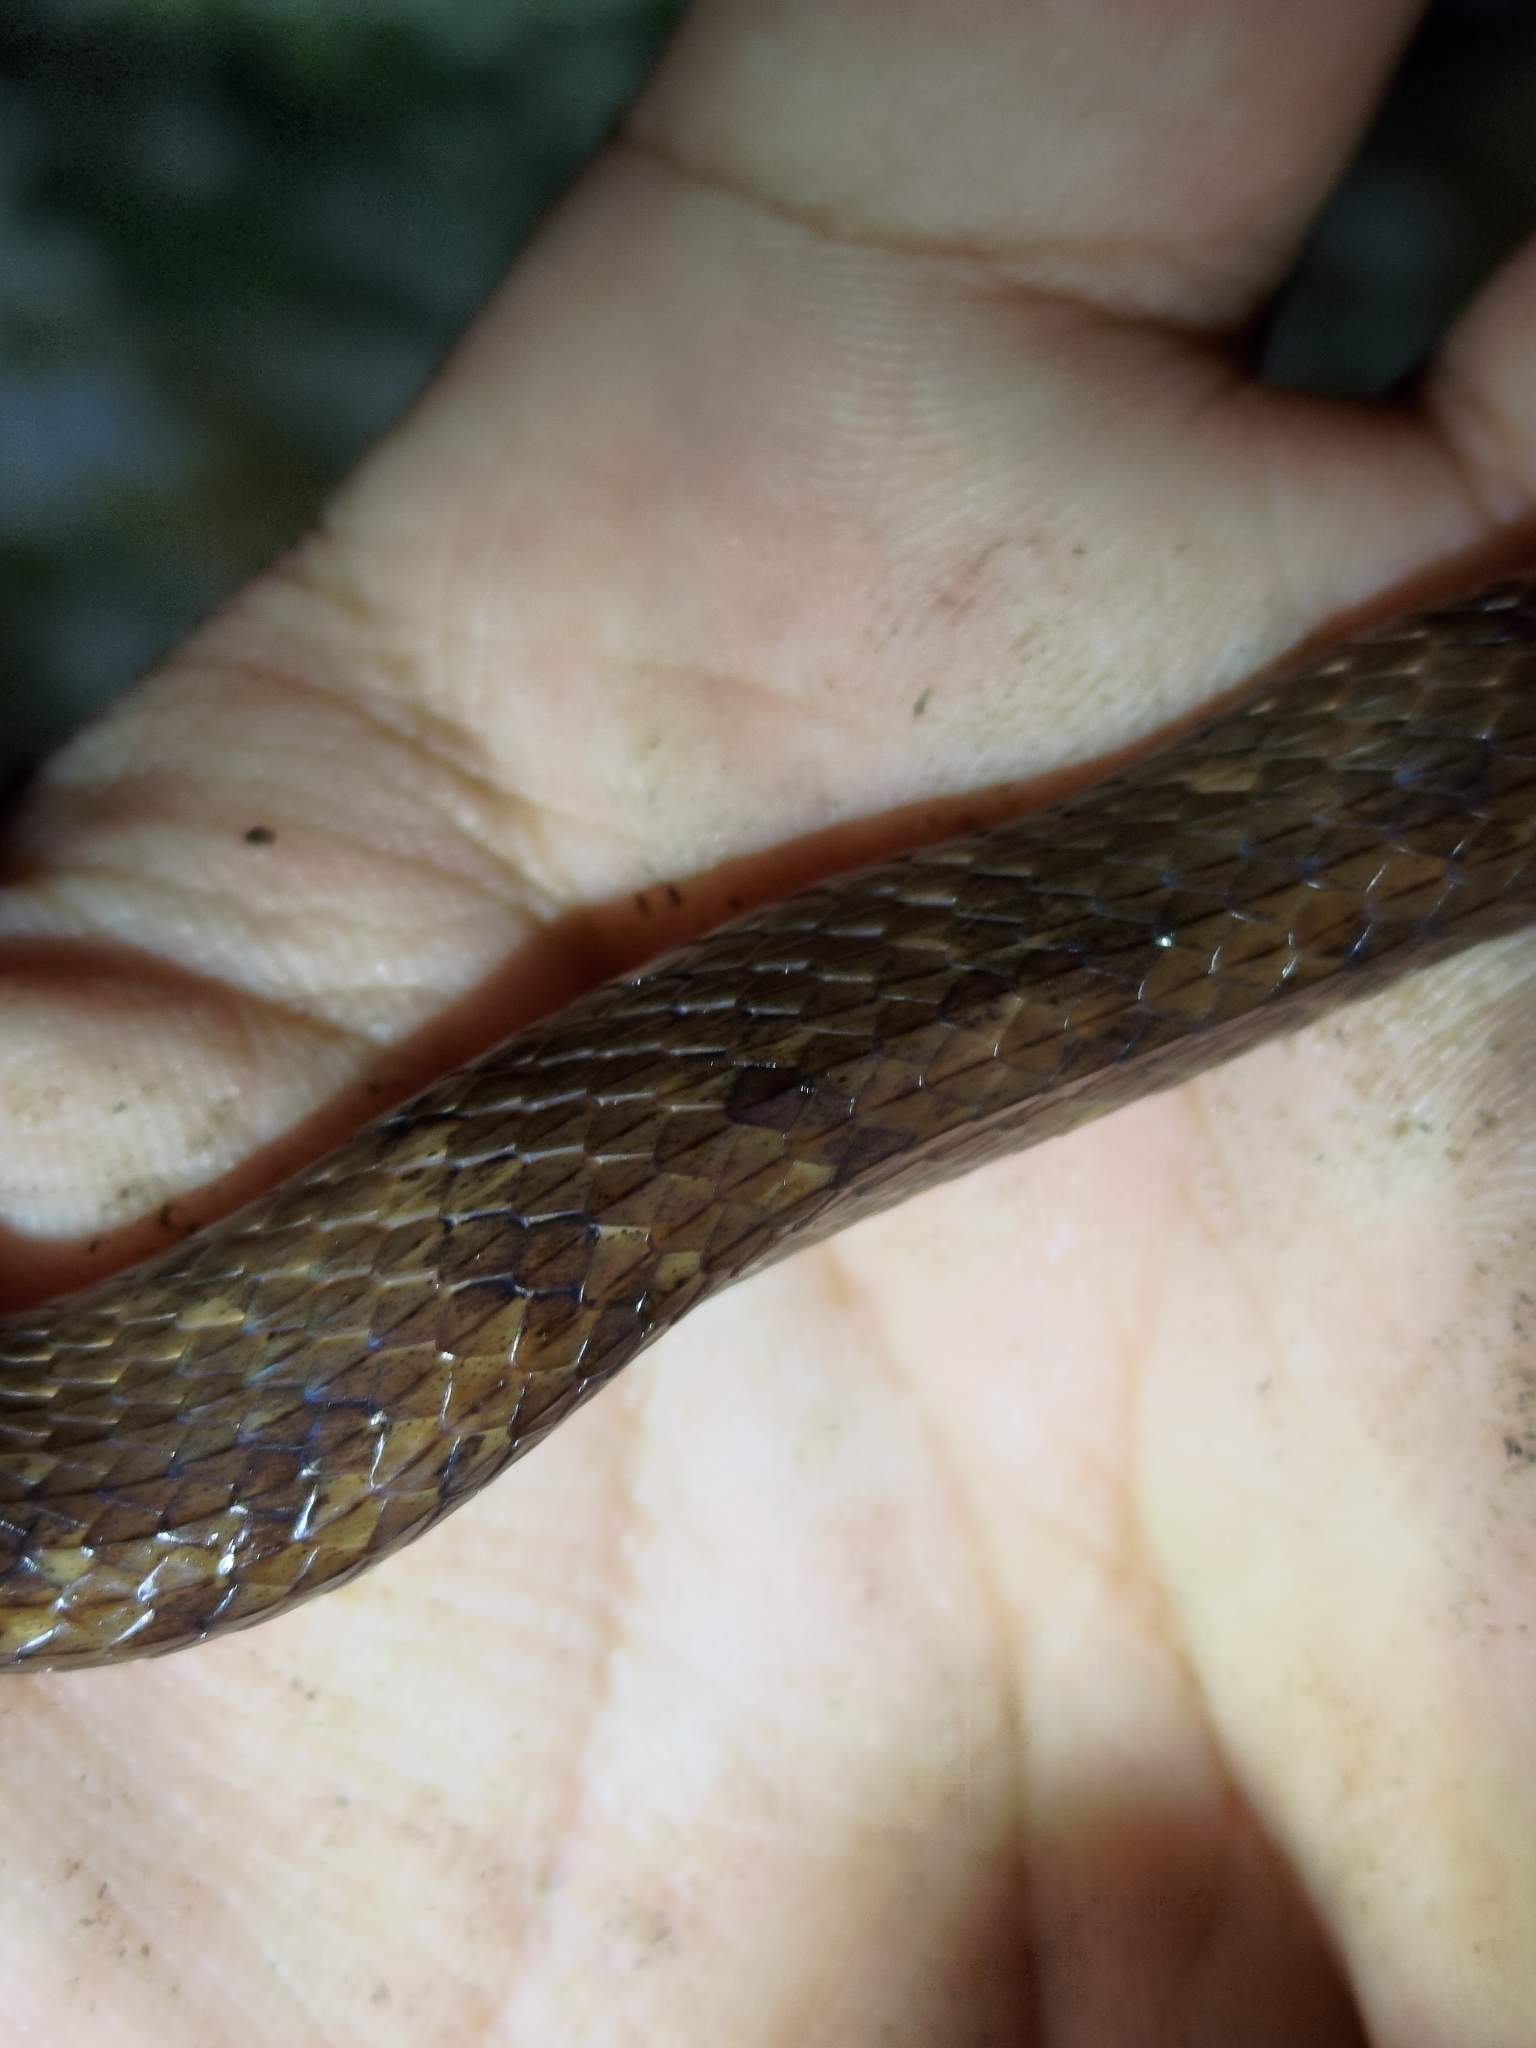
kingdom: Animalia
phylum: Chordata
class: Squamata
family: Pareidae
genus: Pareas
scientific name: Pareas komaii
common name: Formosa slug snake
